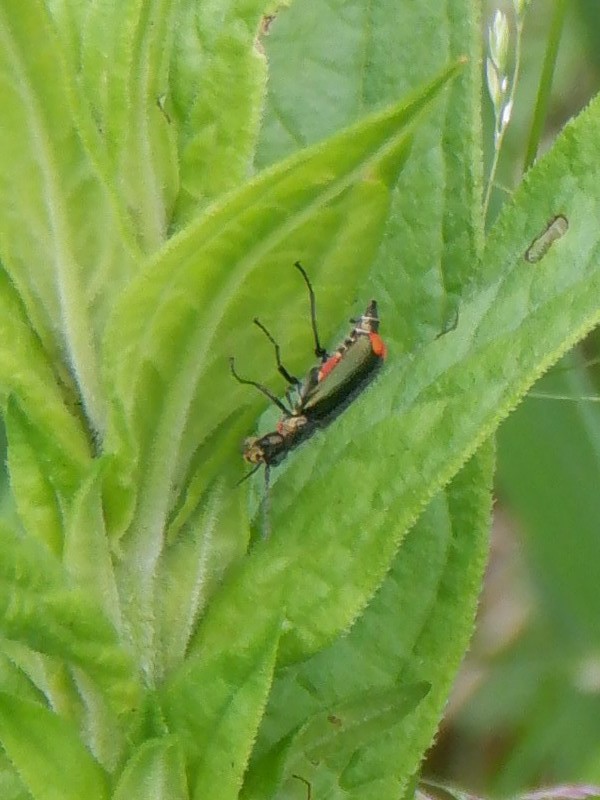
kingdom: Animalia
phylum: Arthropoda
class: Insecta
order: Coleoptera
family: Melyridae
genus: Malachius
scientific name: Malachius bipustulatus
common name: Malachite beetle
